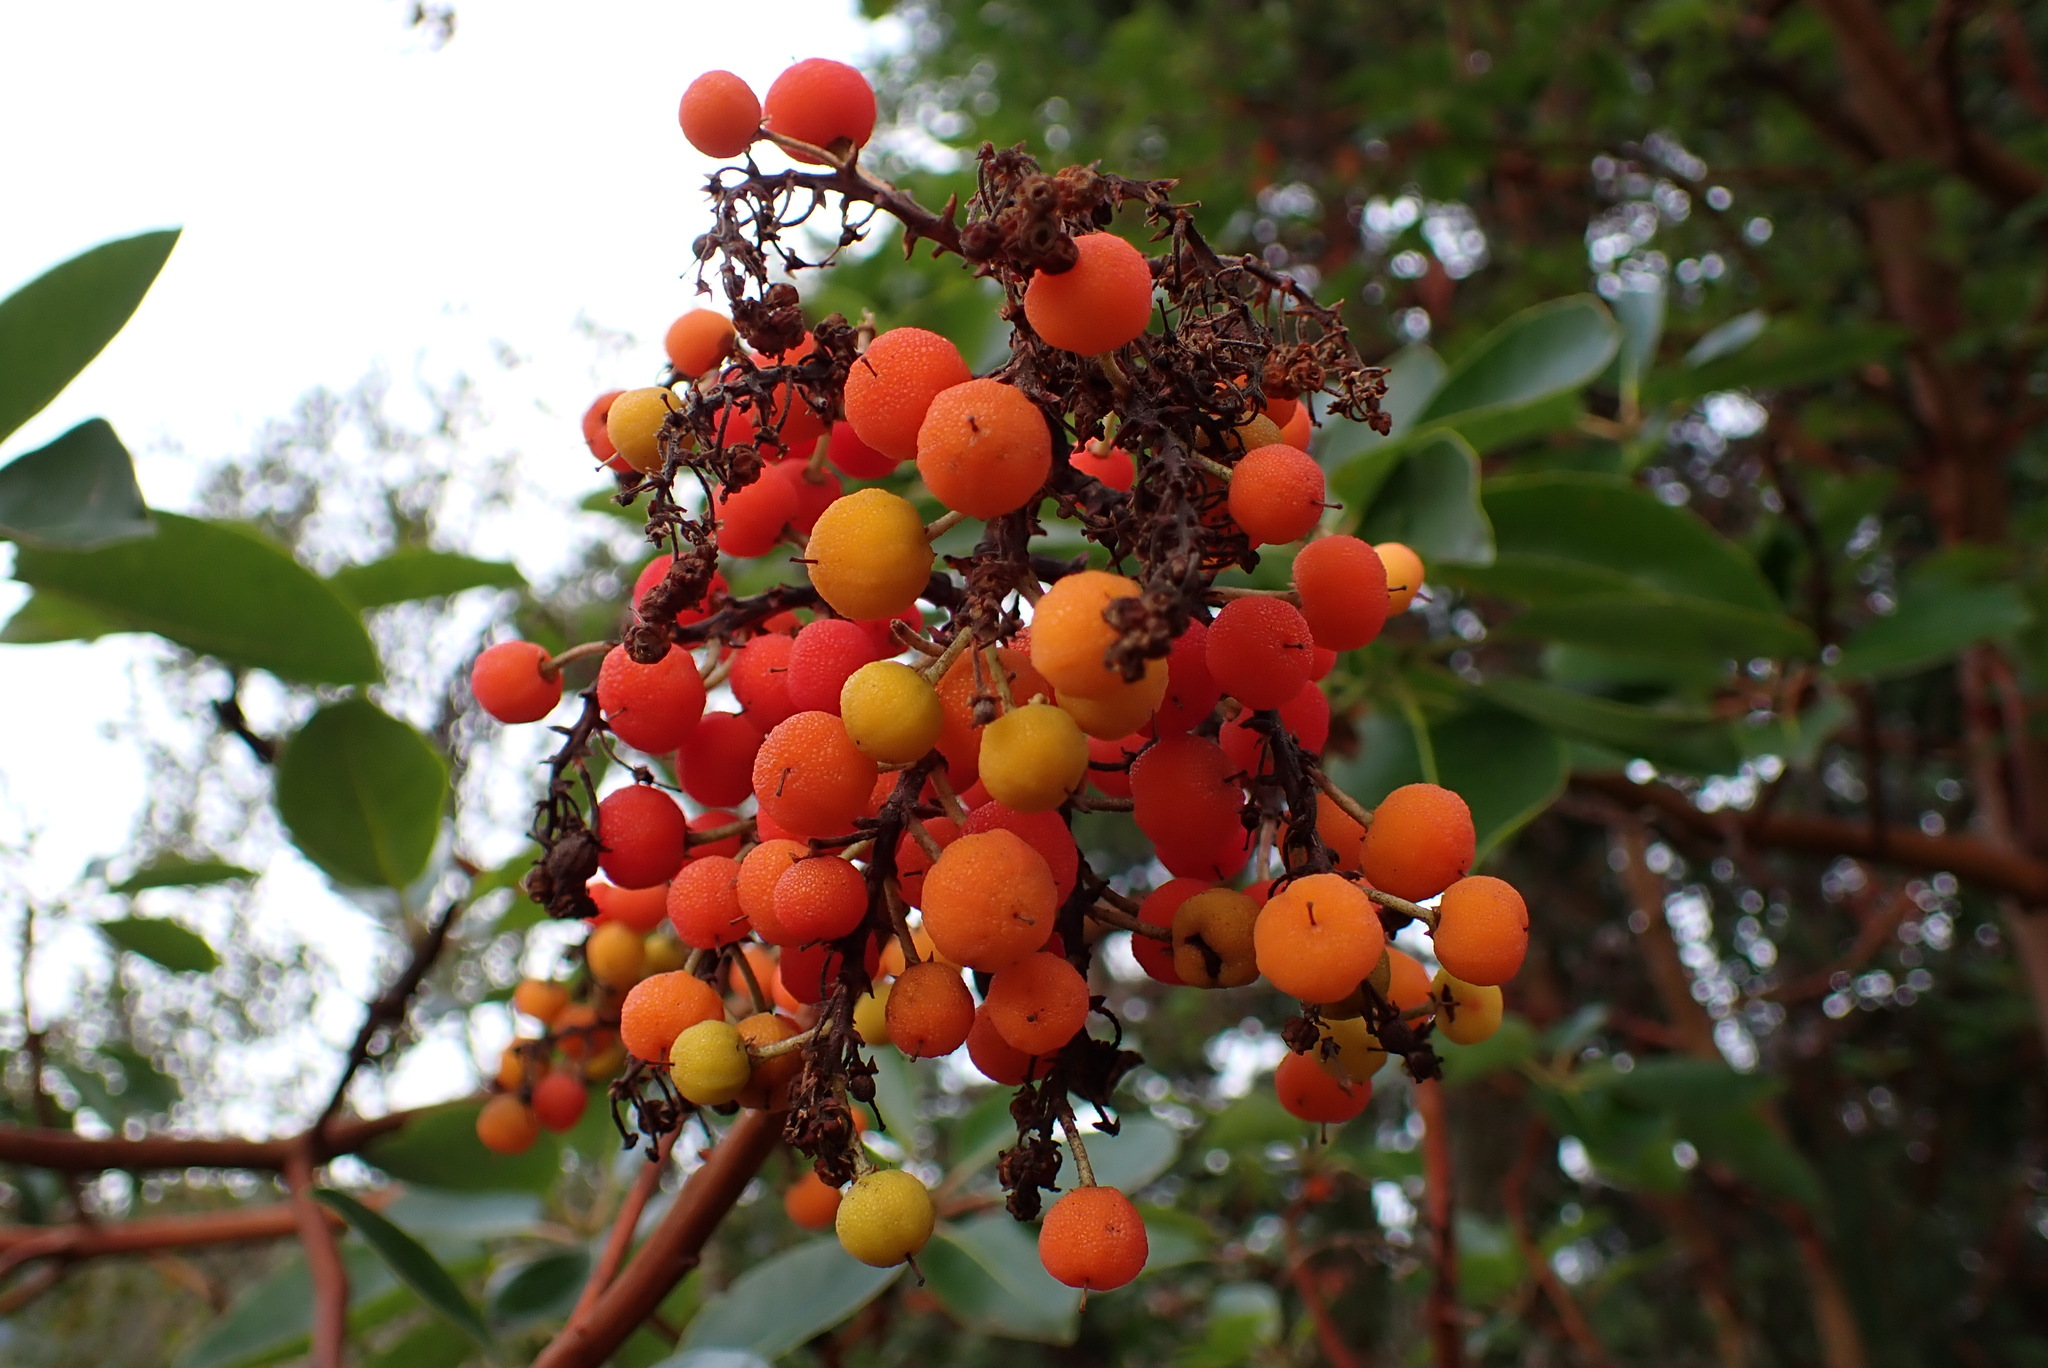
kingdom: Plantae
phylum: Tracheophyta
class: Magnoliopsida
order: Ericales
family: Ericaceae
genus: Arbutus
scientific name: Arbutus menziesii
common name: Pacific madrone
